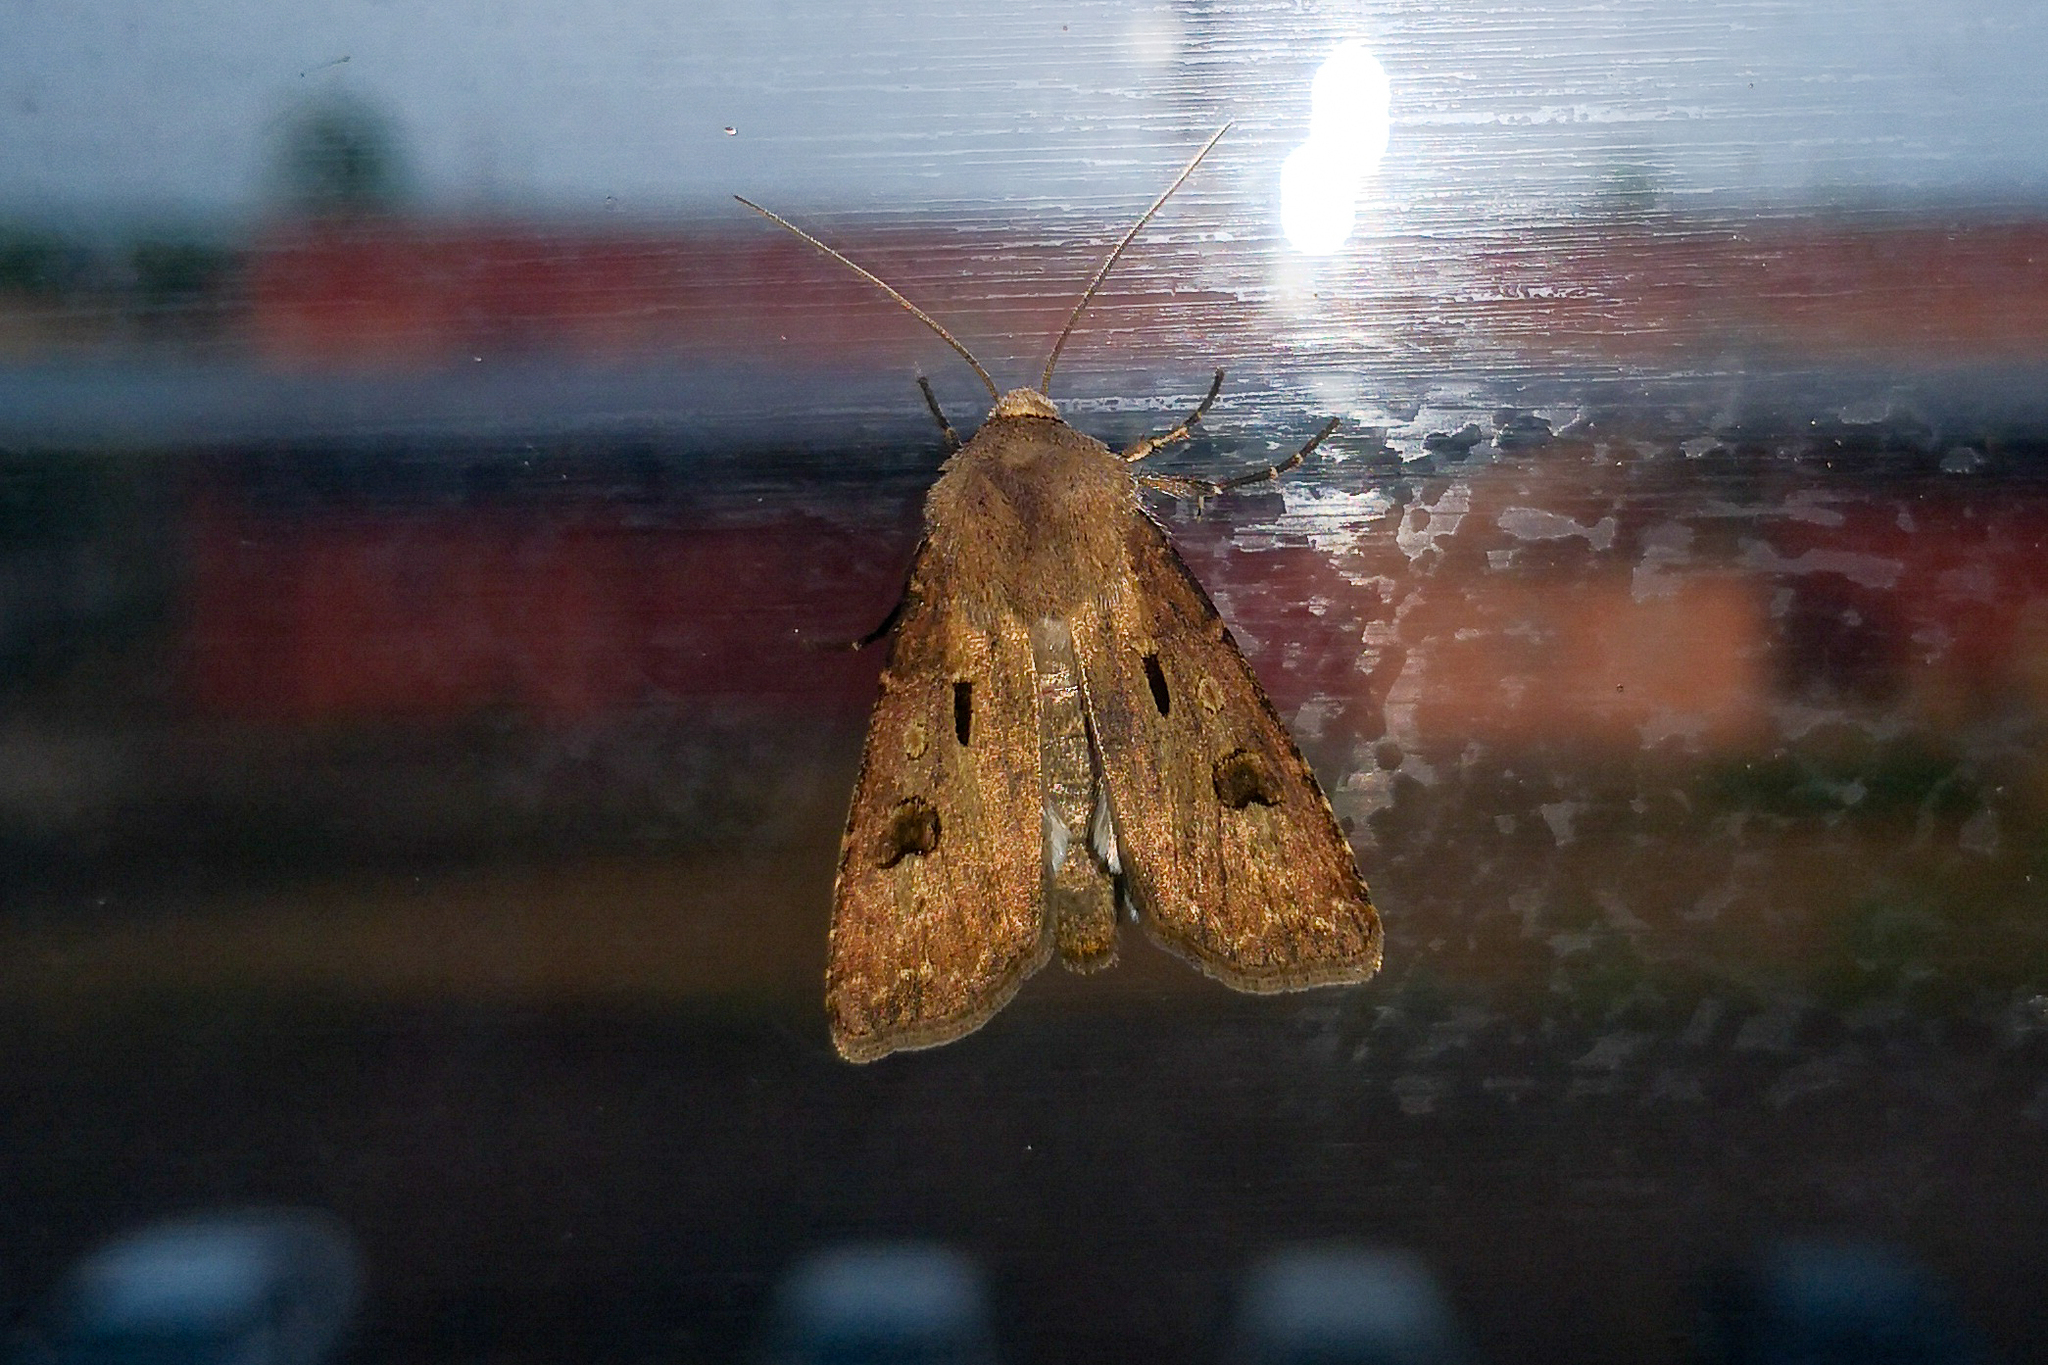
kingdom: Animalia
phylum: Arthropoda
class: Insecta
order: Lepidoptera
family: Noctuidae
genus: Agrotis
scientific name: Agrotis exclamationis
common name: Heart and dart
